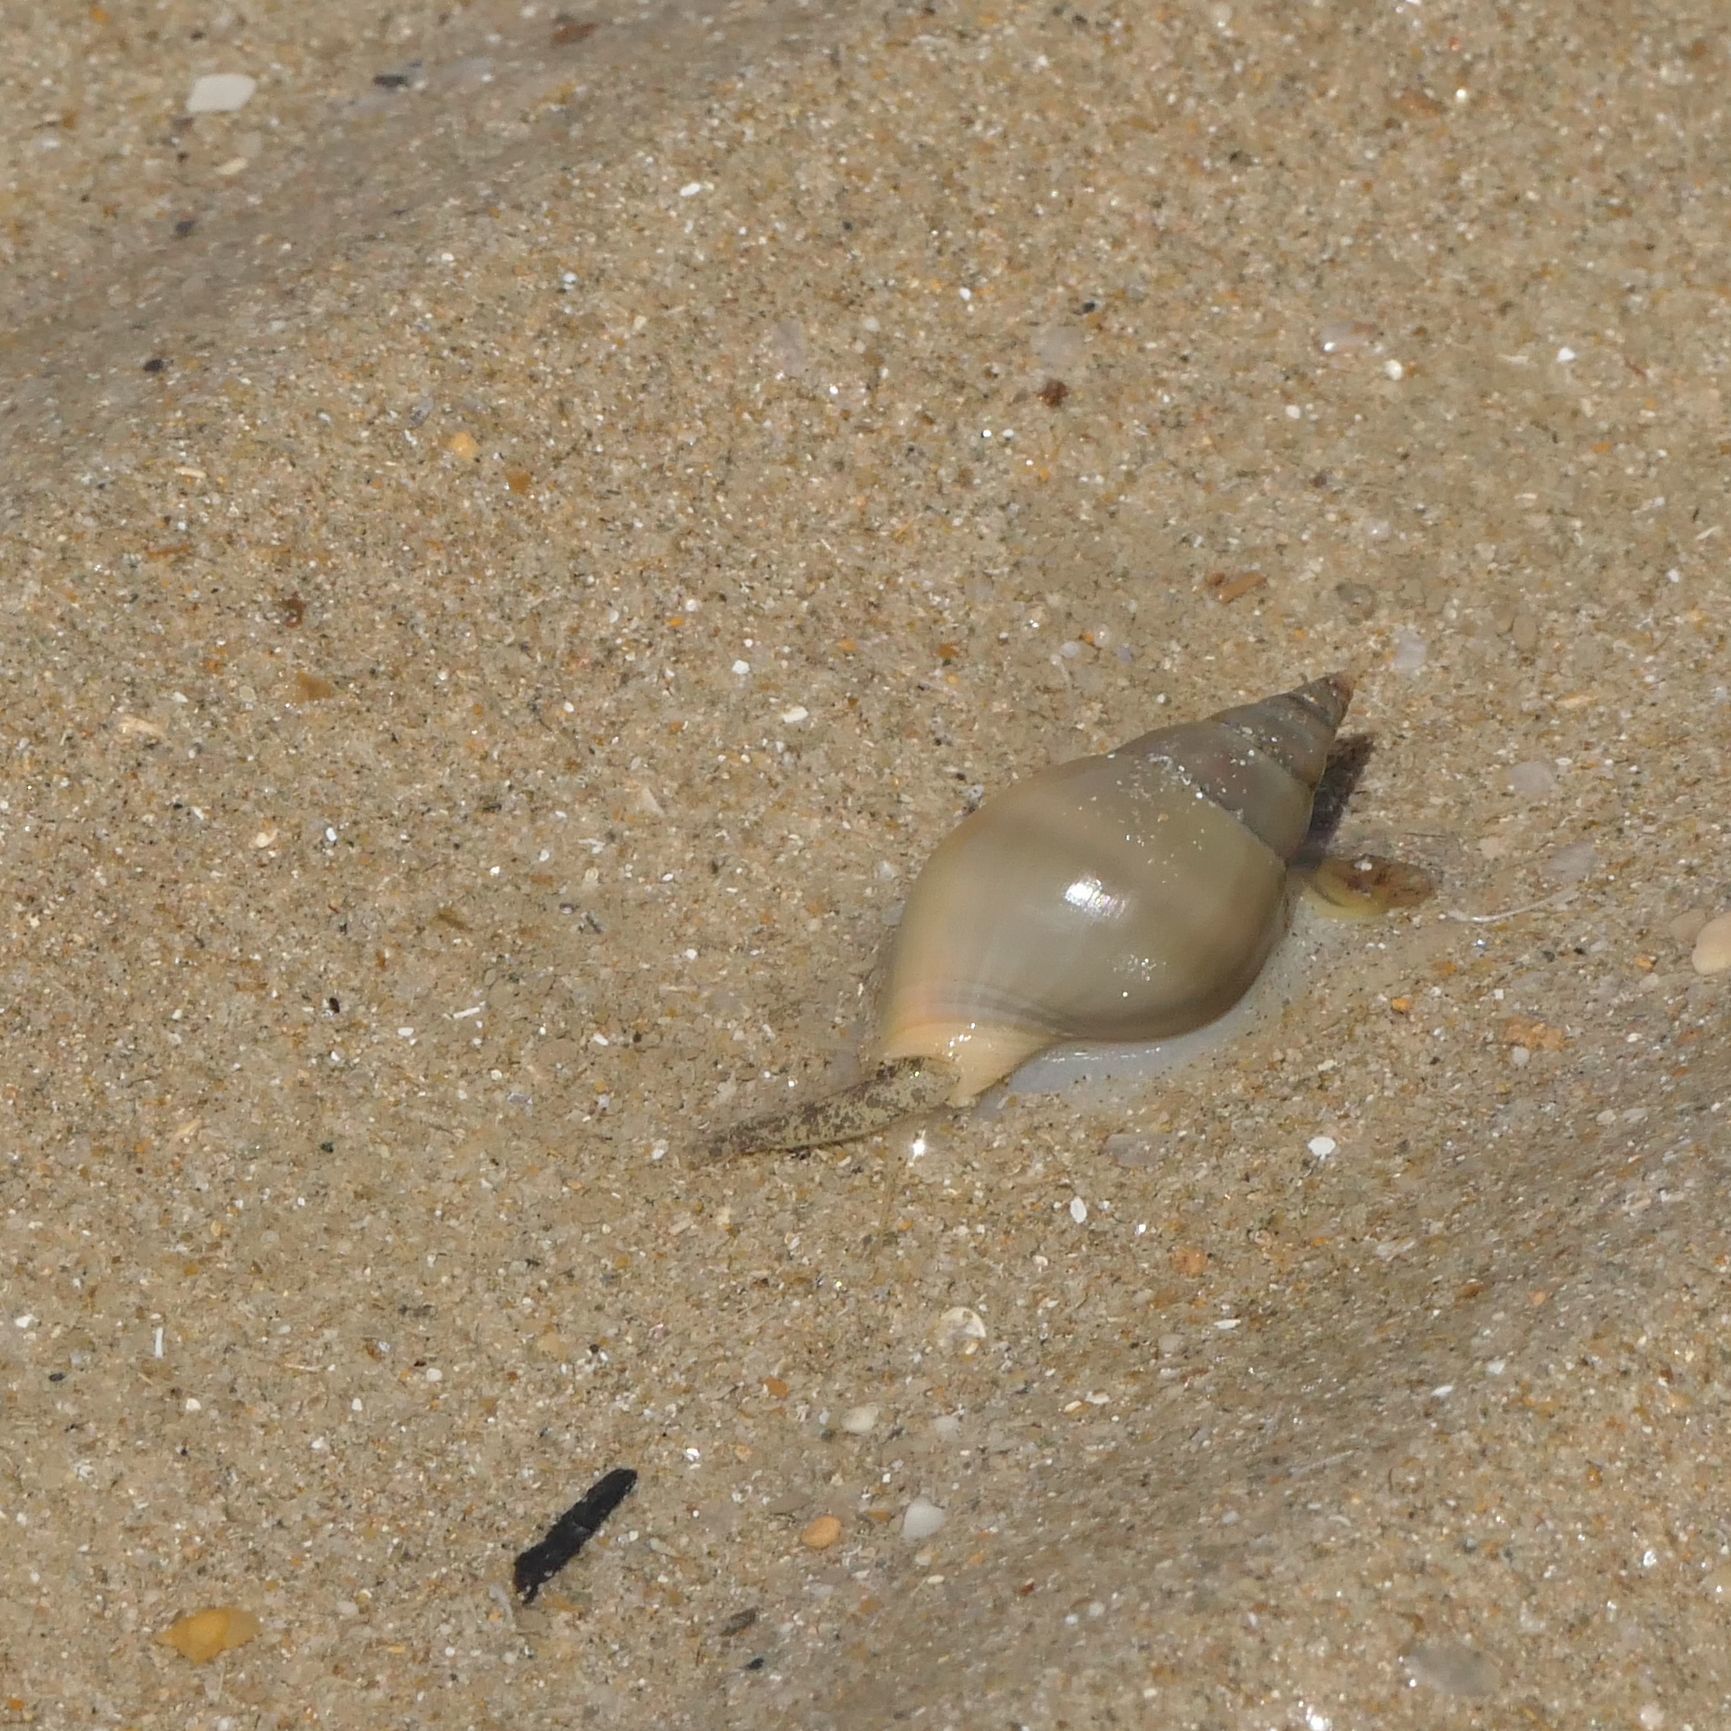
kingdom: Animalia
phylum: Mollusca
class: Gastropoda
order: Neogastropoda
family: Nassariidae
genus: Nassarius
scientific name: Nassarius dorsatus
